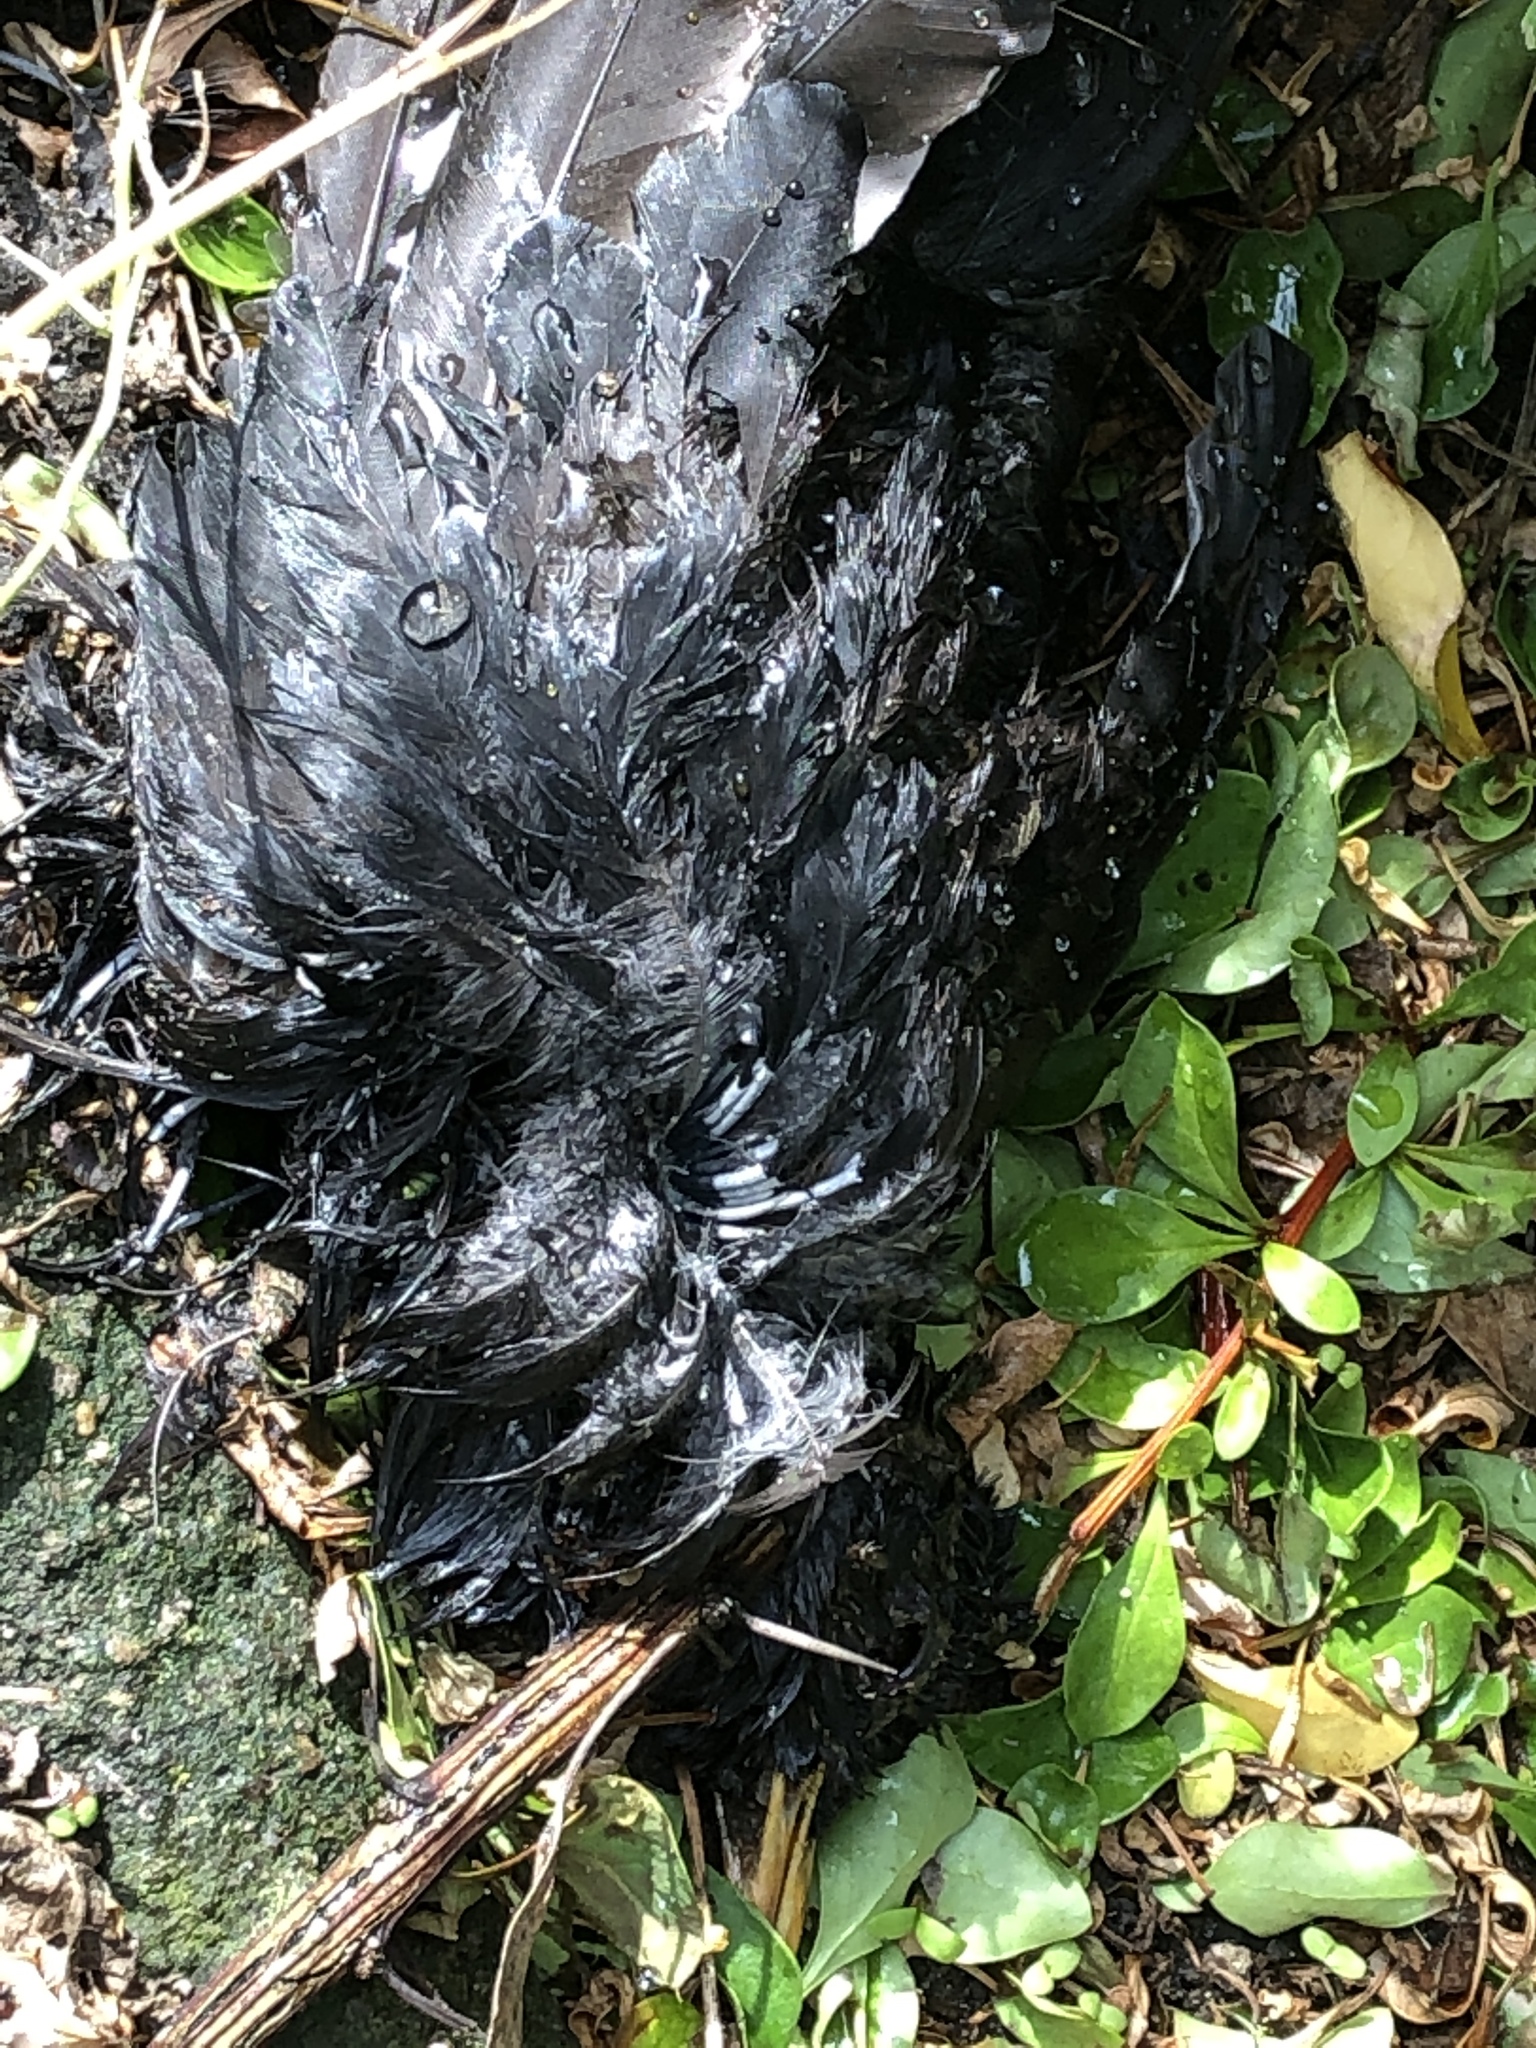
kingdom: Animalia
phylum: Chordata
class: Aves
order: Passeriformes
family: Turdidae
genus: Turdus
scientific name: Turdus merula
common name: Common blackbird
